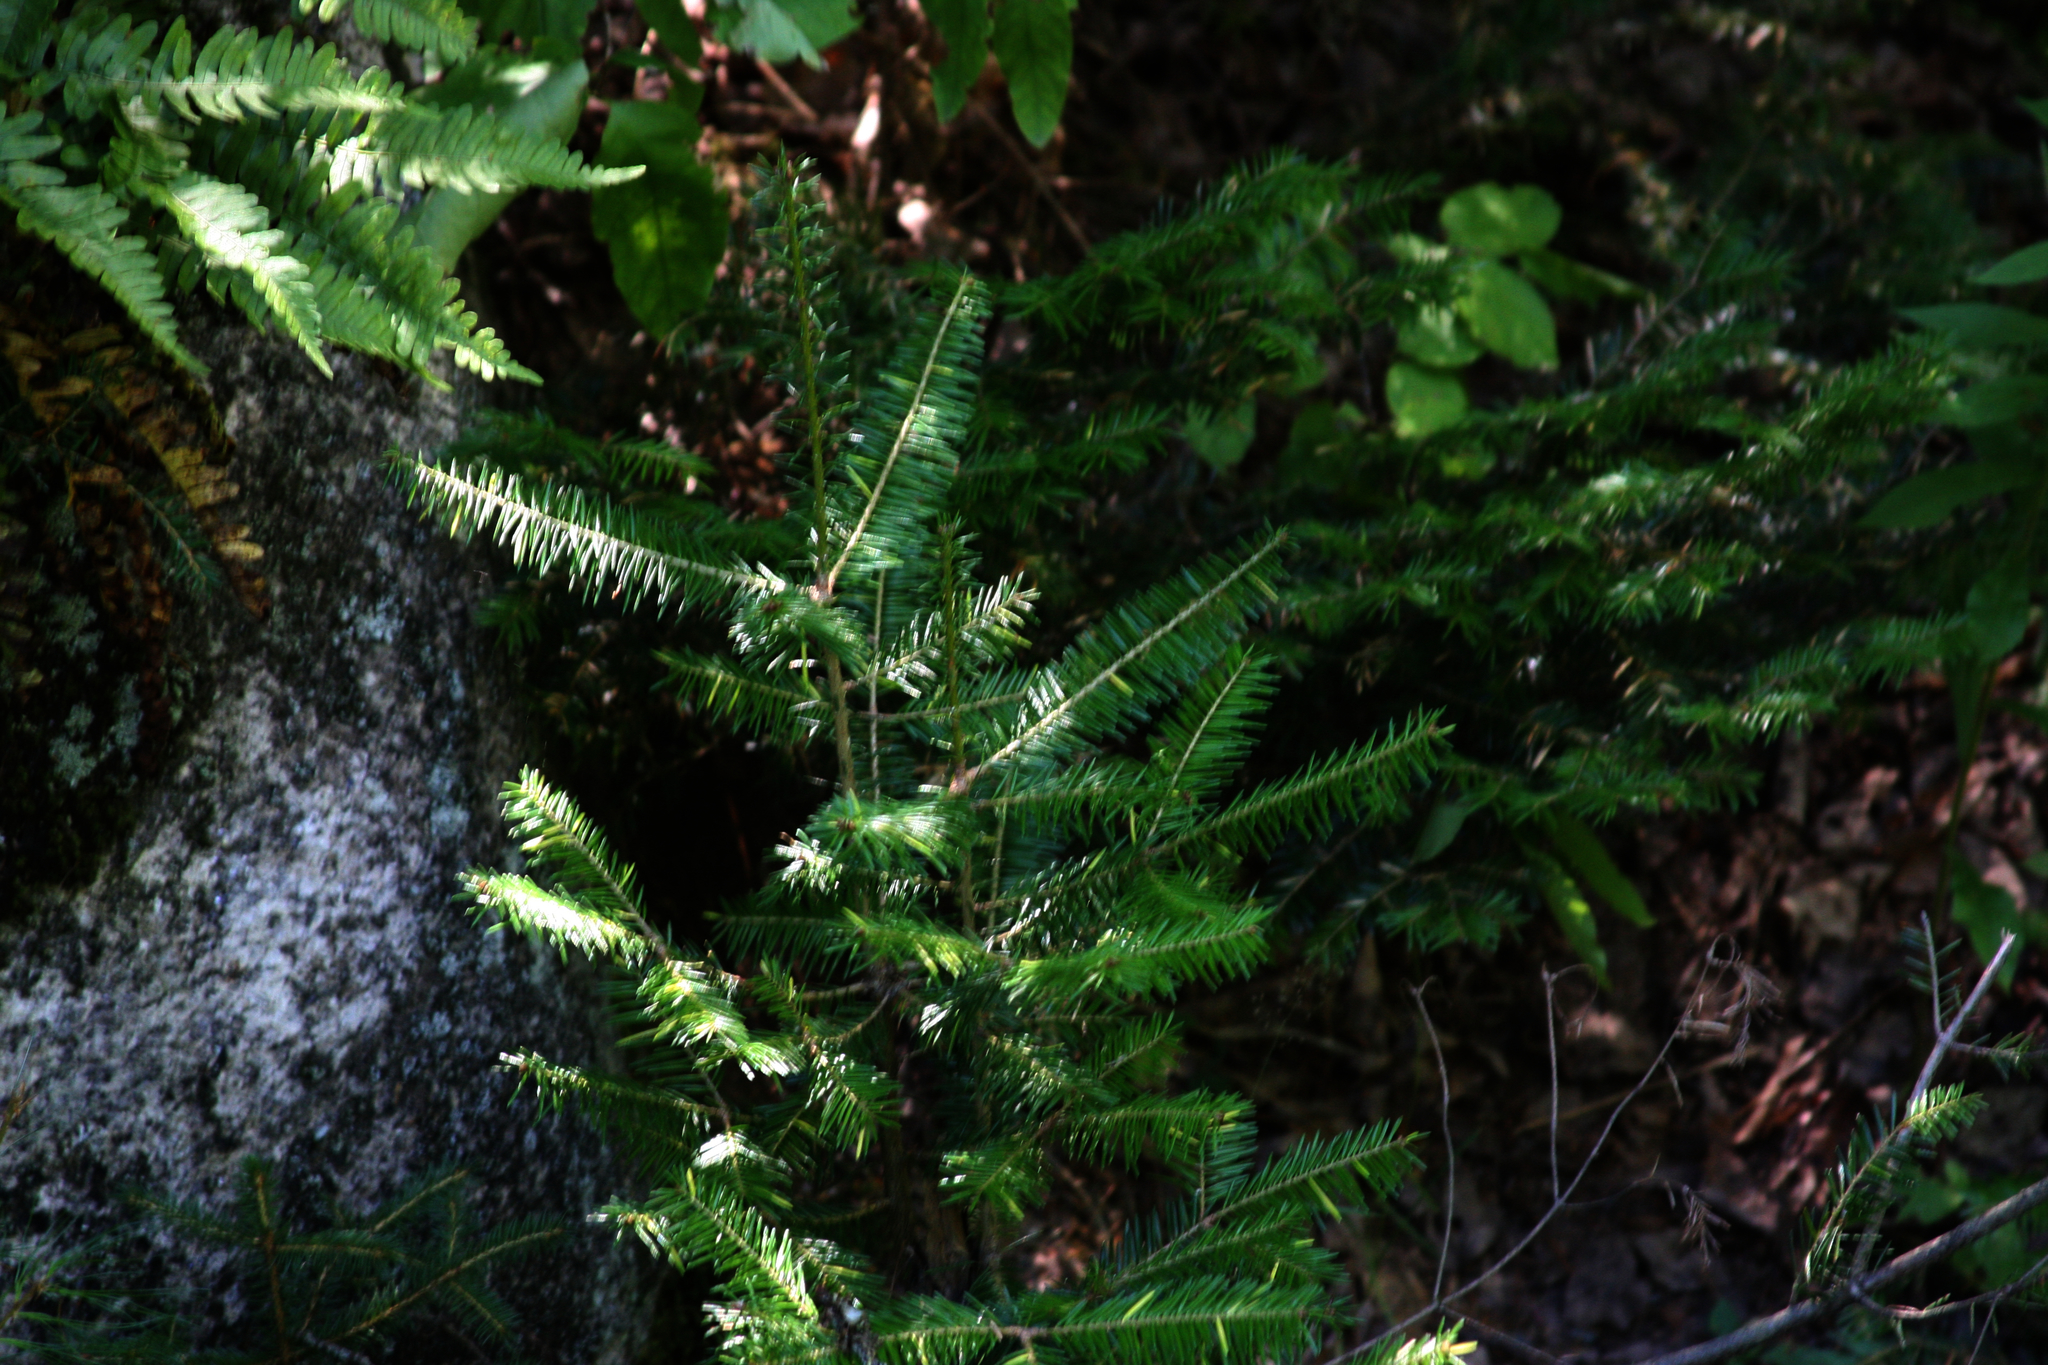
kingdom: Plantae
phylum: Tracheophyta
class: Pinopsida
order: Pinales
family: Pinaceae
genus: Abies
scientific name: Abies balsamea
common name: Balsam fir
